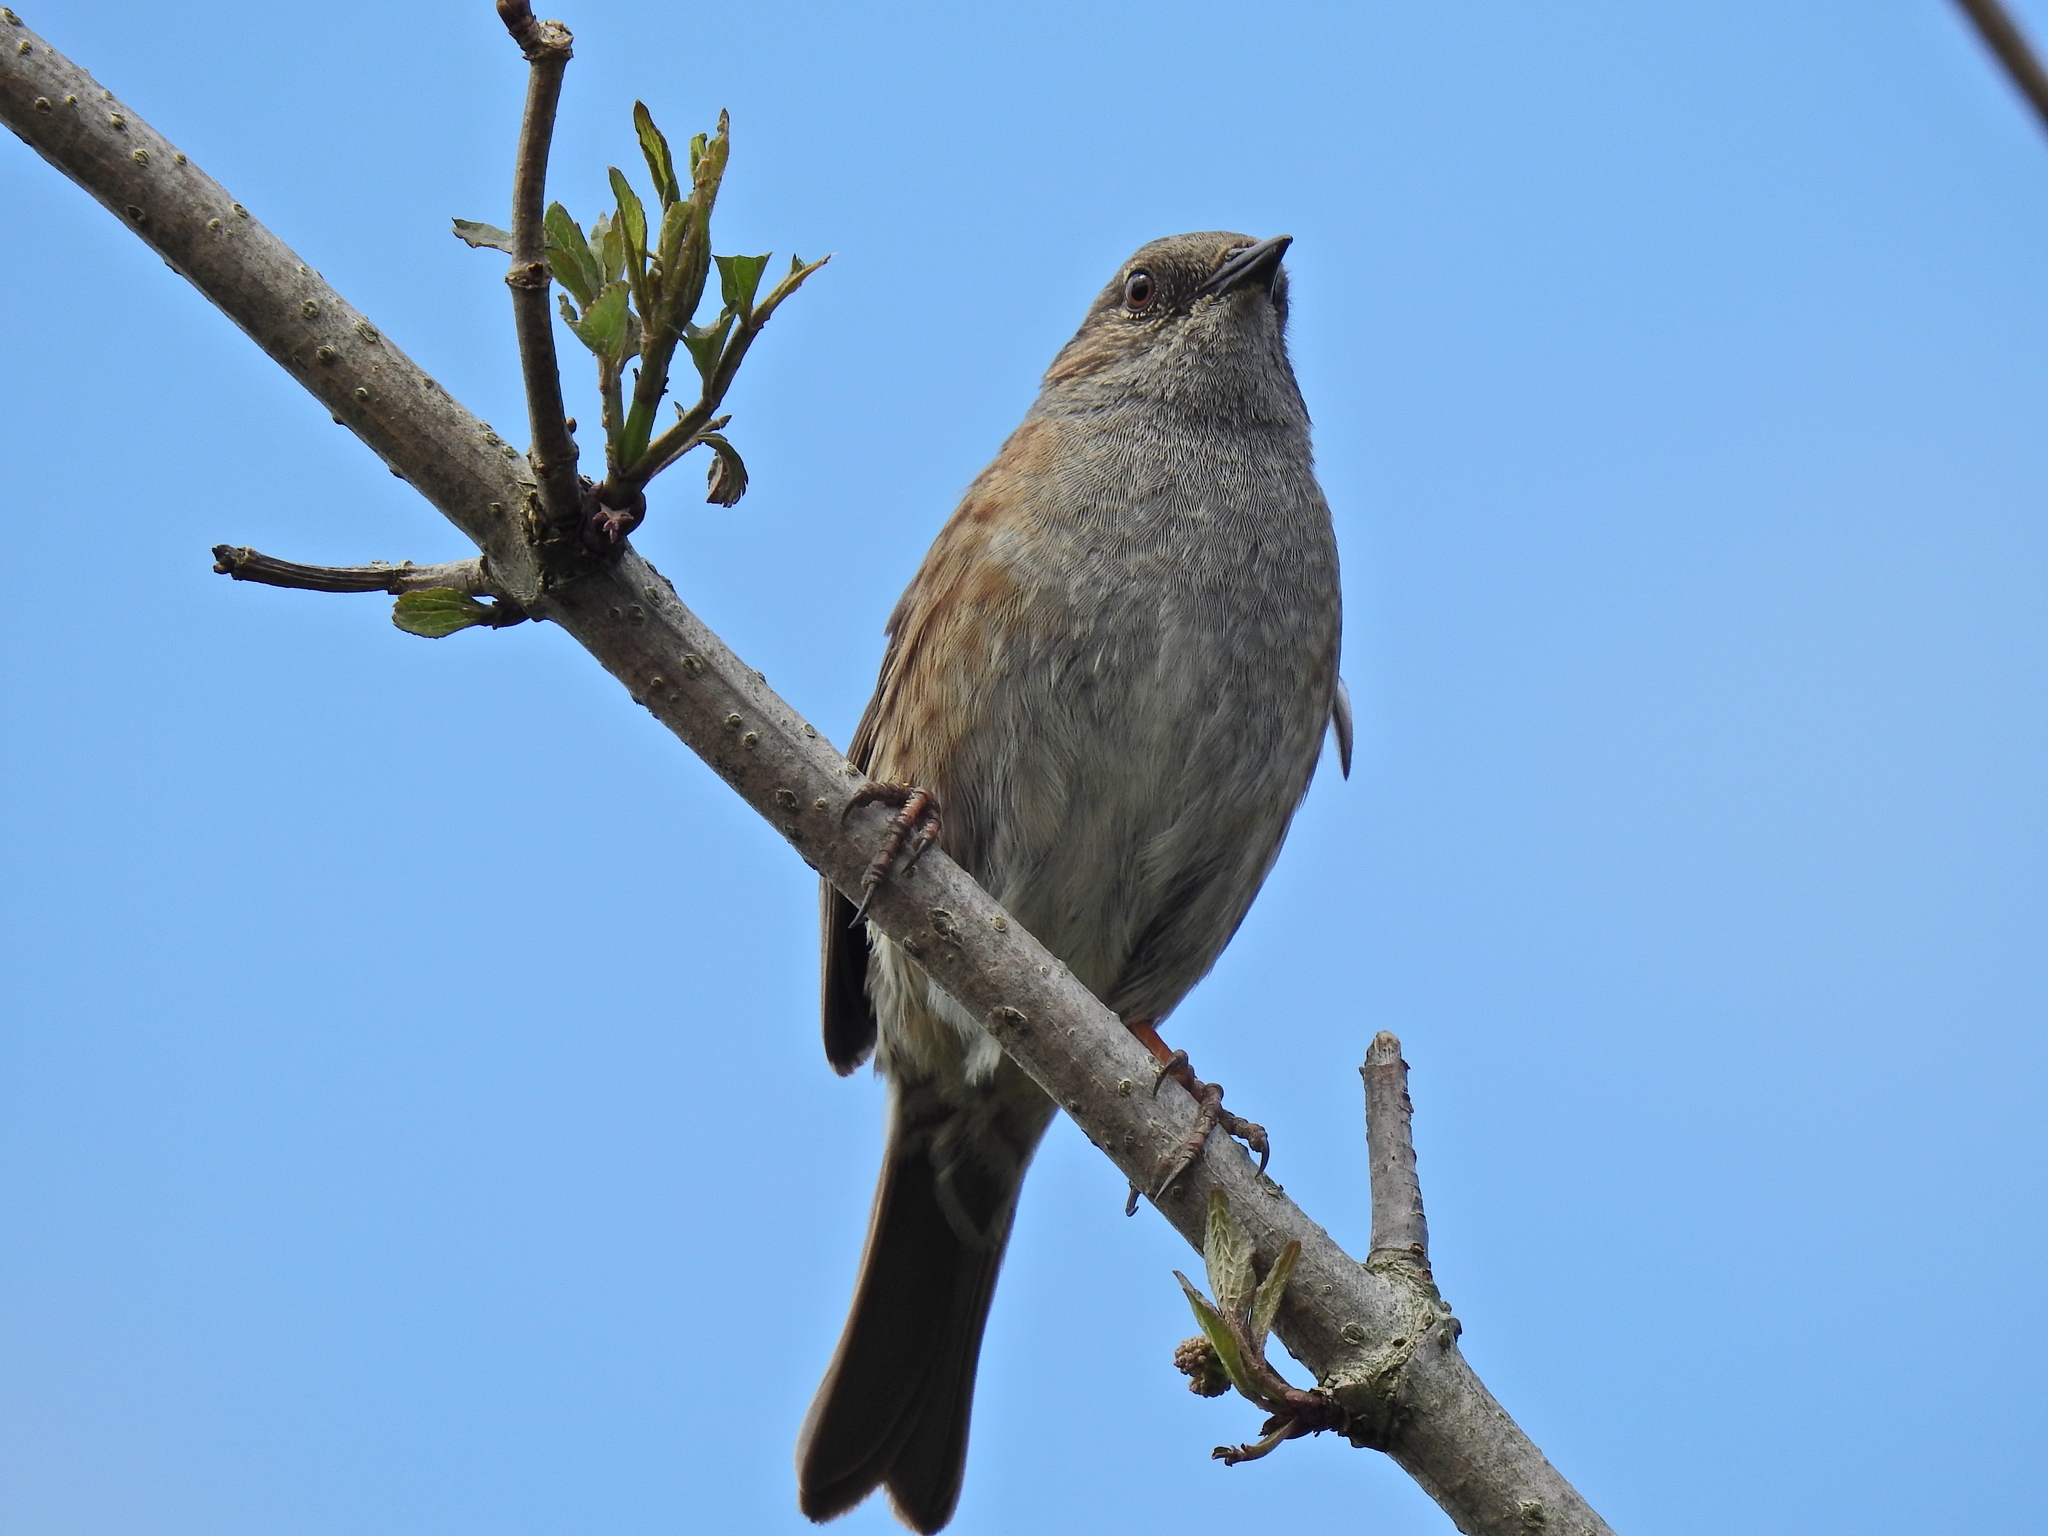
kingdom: Animalia
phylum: Chordata
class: Aves
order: Passeriformes
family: Prunellidae
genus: Prunella
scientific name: Prunella modularis
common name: Dunnock
